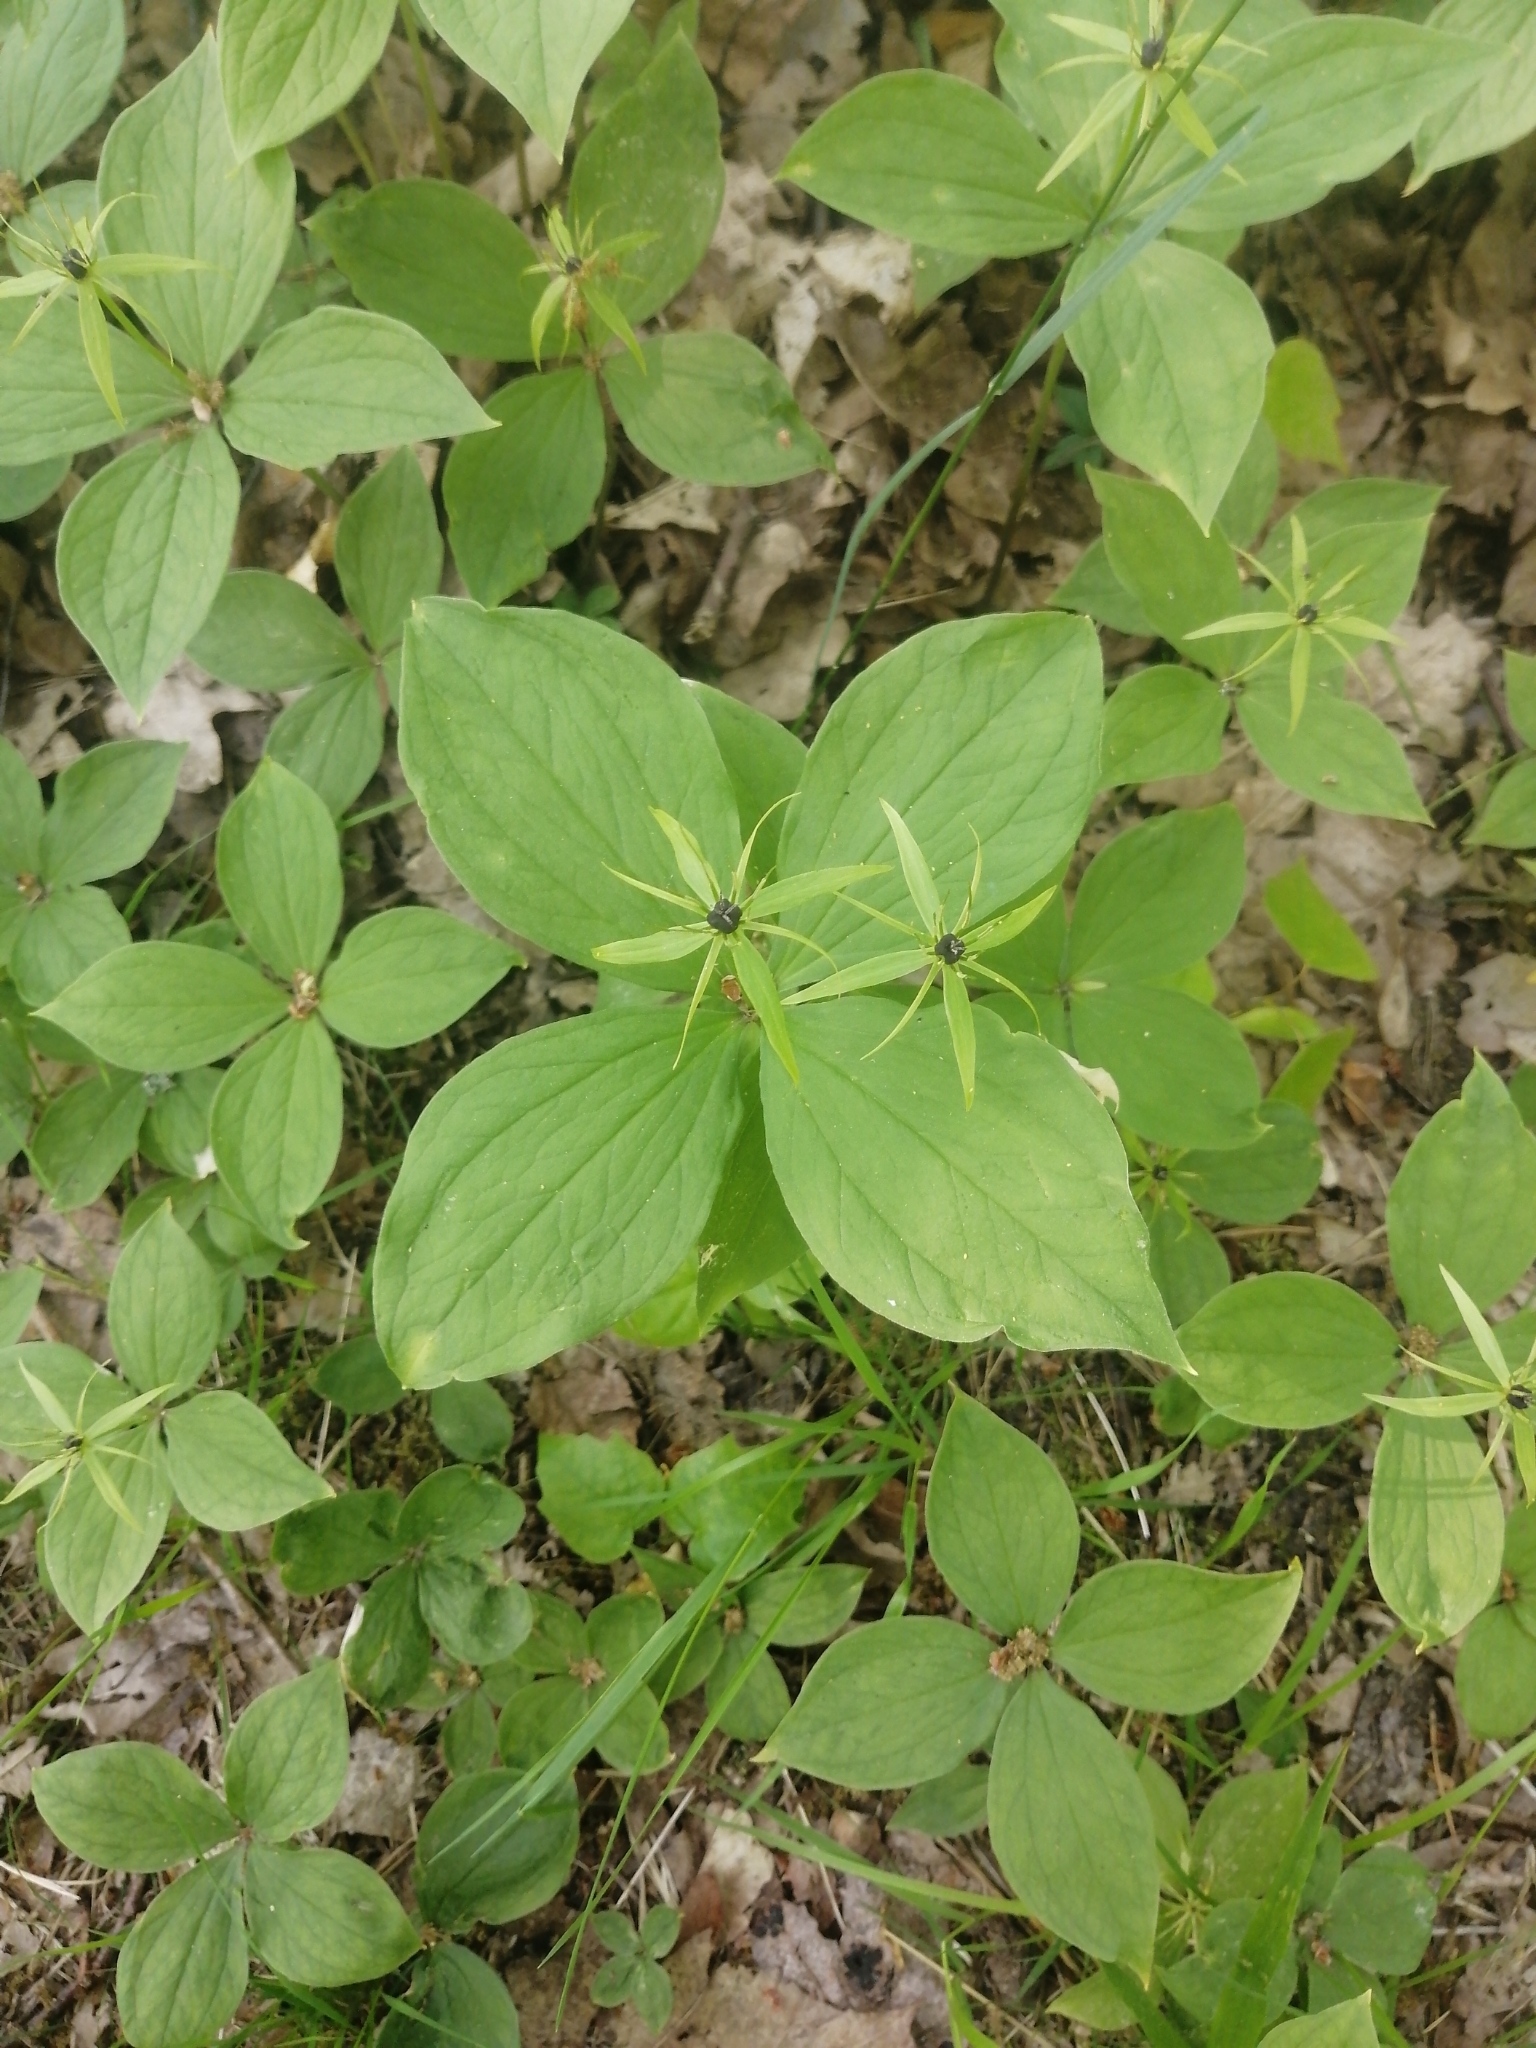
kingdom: Plantae
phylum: Tracheophyta
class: Liliopsida
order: Liliales
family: Melanthiaceae
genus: Paris
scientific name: Paris quadrifolia
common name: Herb-paris
